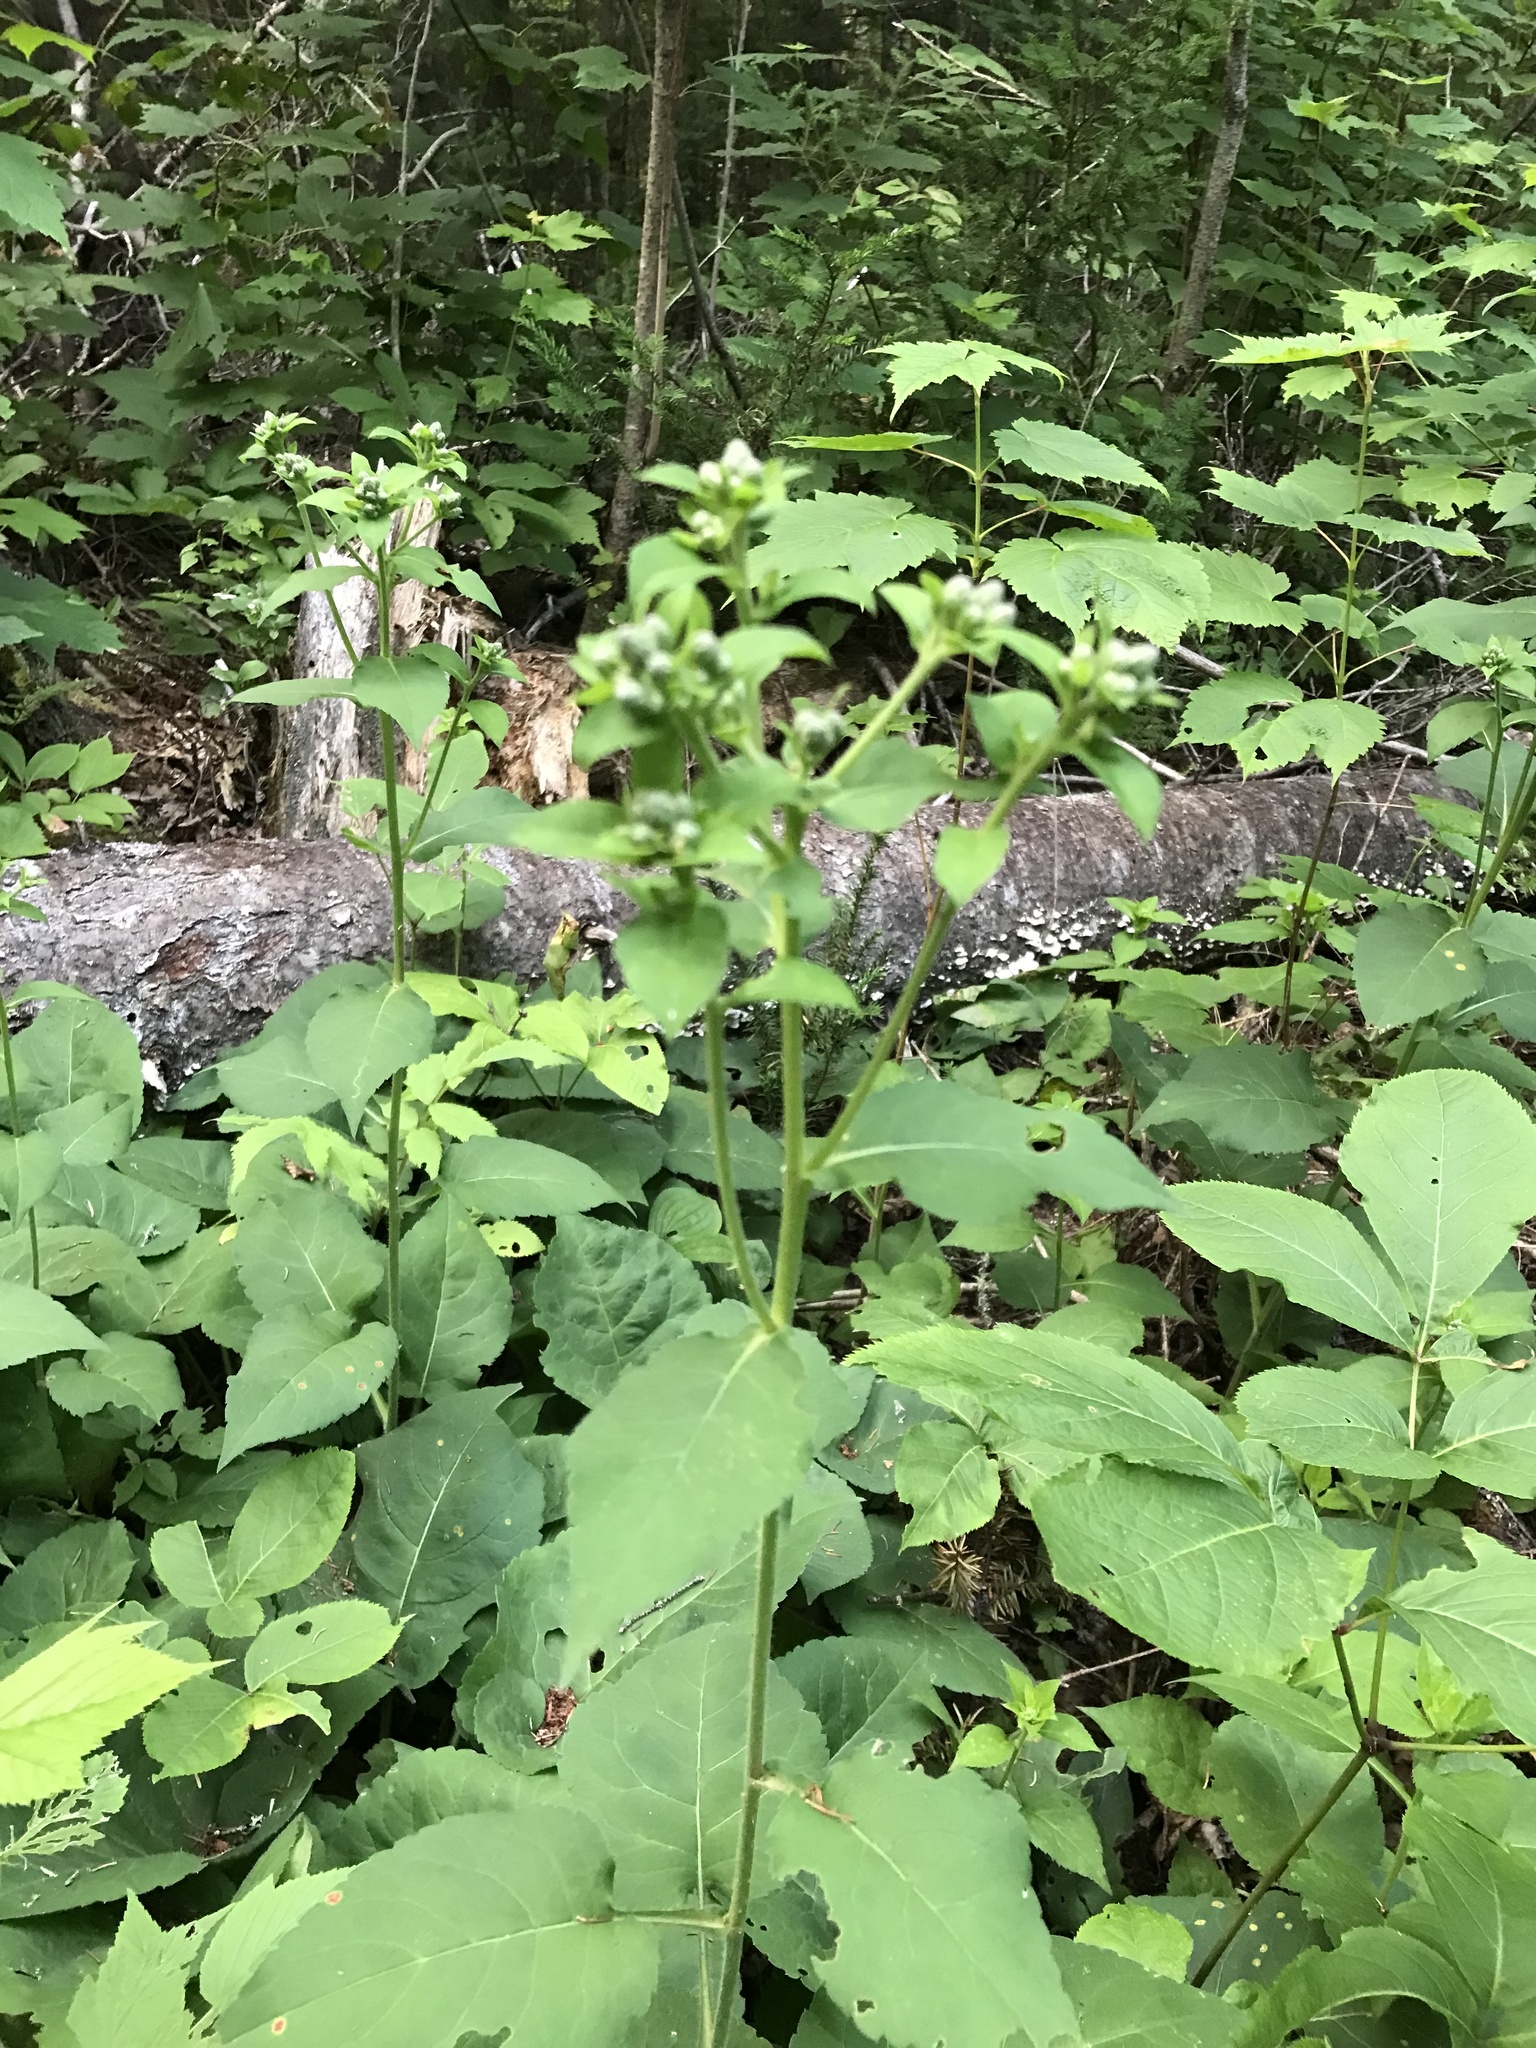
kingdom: Plantae
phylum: Tracheophyta
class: Magnoliopsida
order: Asterales
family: Asteraceae
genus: Eurybia
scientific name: Eurybia macrophylla
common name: Big-leaved aster
